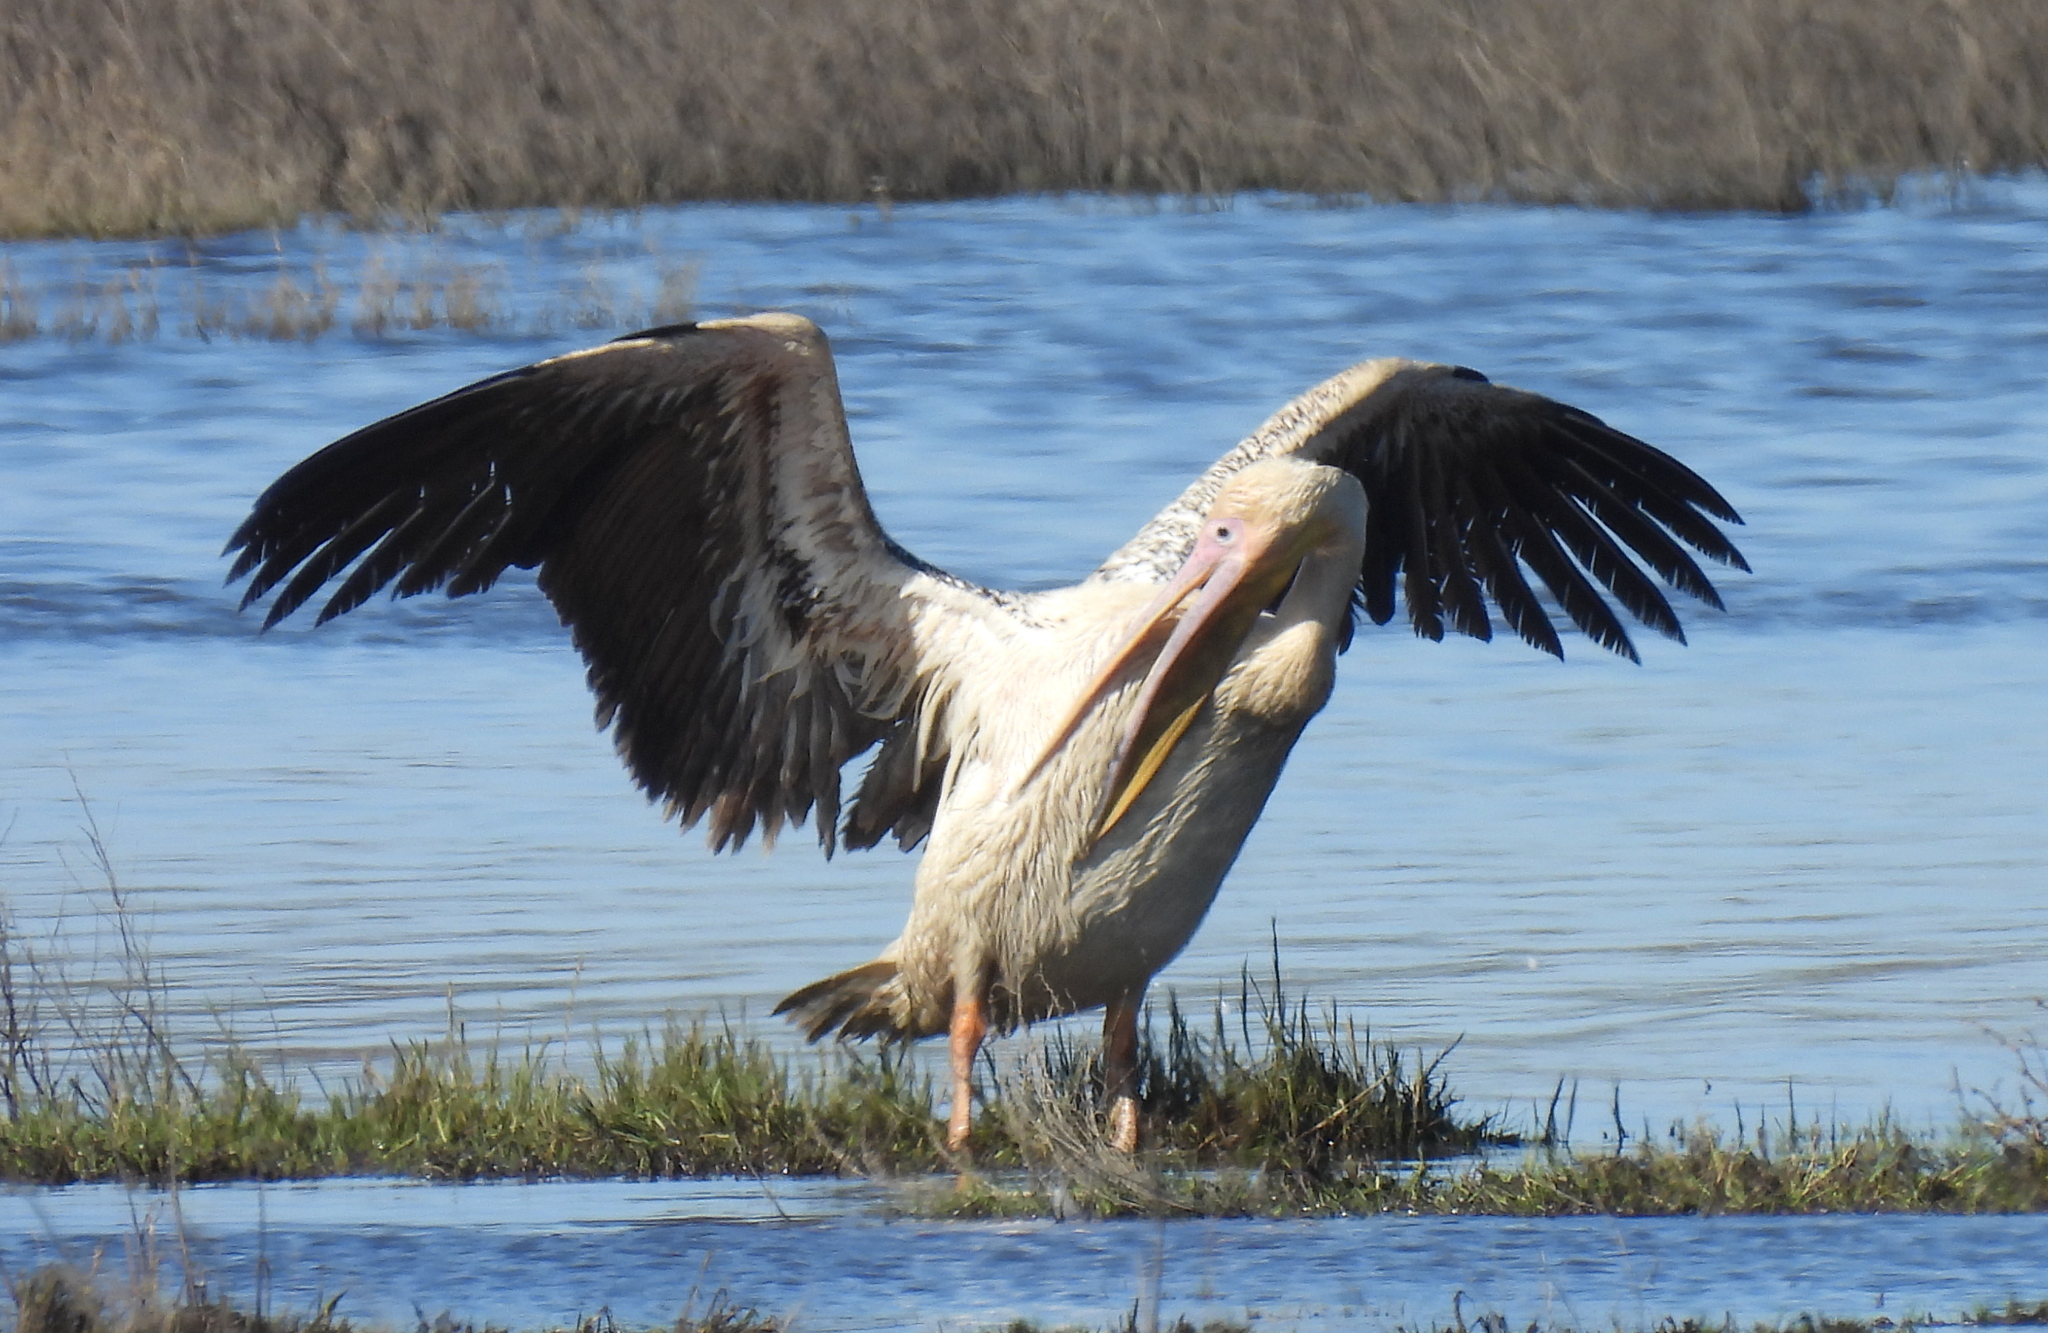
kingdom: Animalia
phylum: Chordata
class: Aves
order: Pelecaniformes
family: Pelecanidae
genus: Pelecanus
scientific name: Pelecanus onocrotalus
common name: Great white pelican
